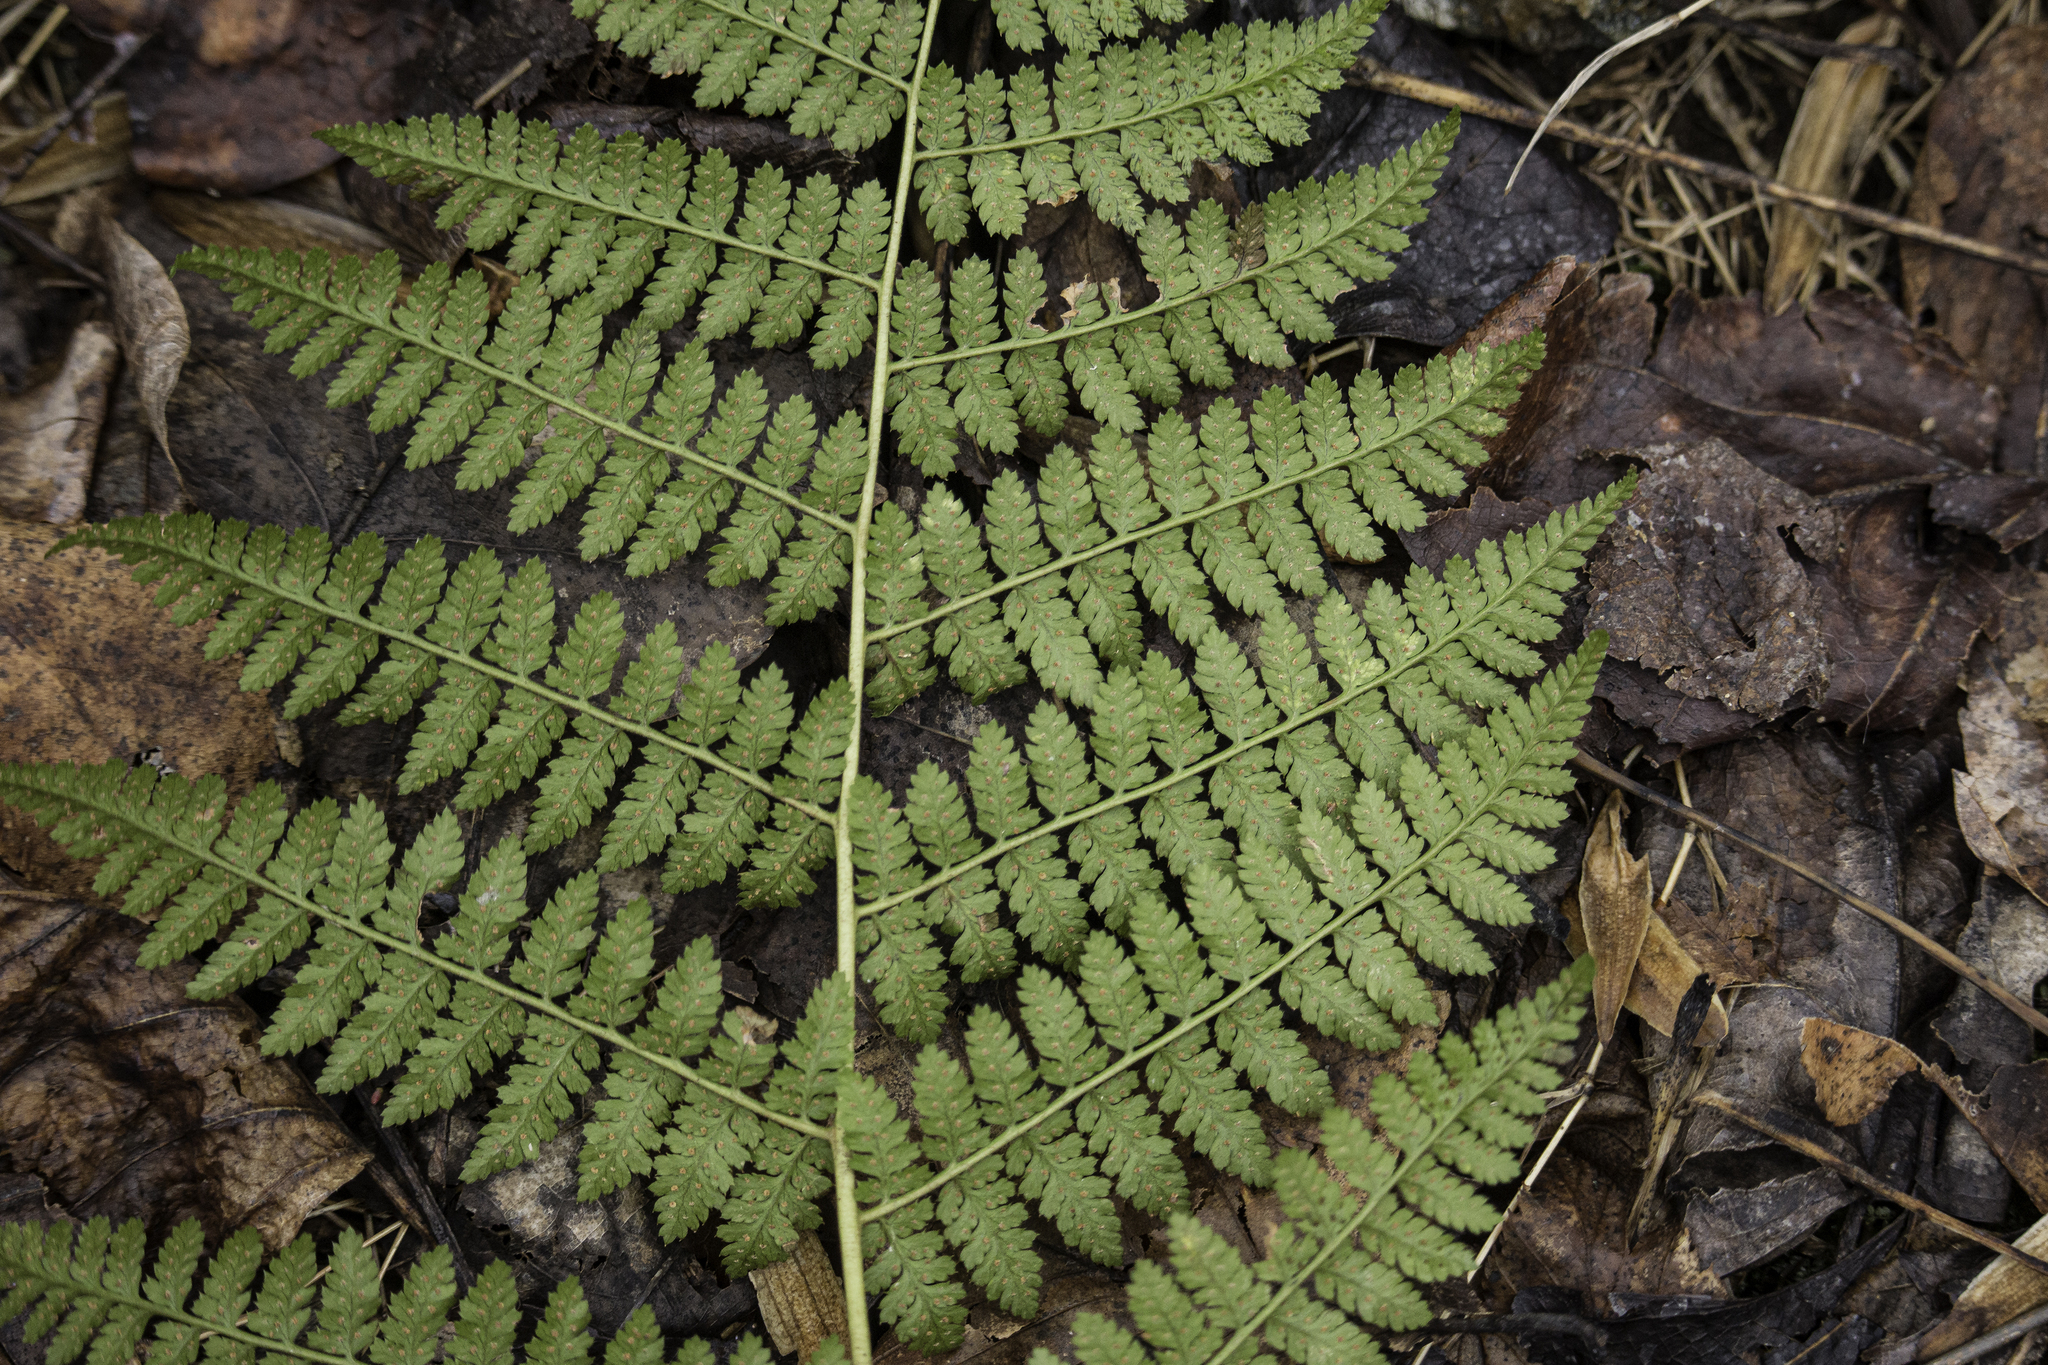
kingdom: Plantae
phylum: Tracheophyta
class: Polypodiopsida
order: Polypodiales
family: Dryopteridaceae
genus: Dryopteris
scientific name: Dryopteris intermedia
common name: Evergreen wood fern
